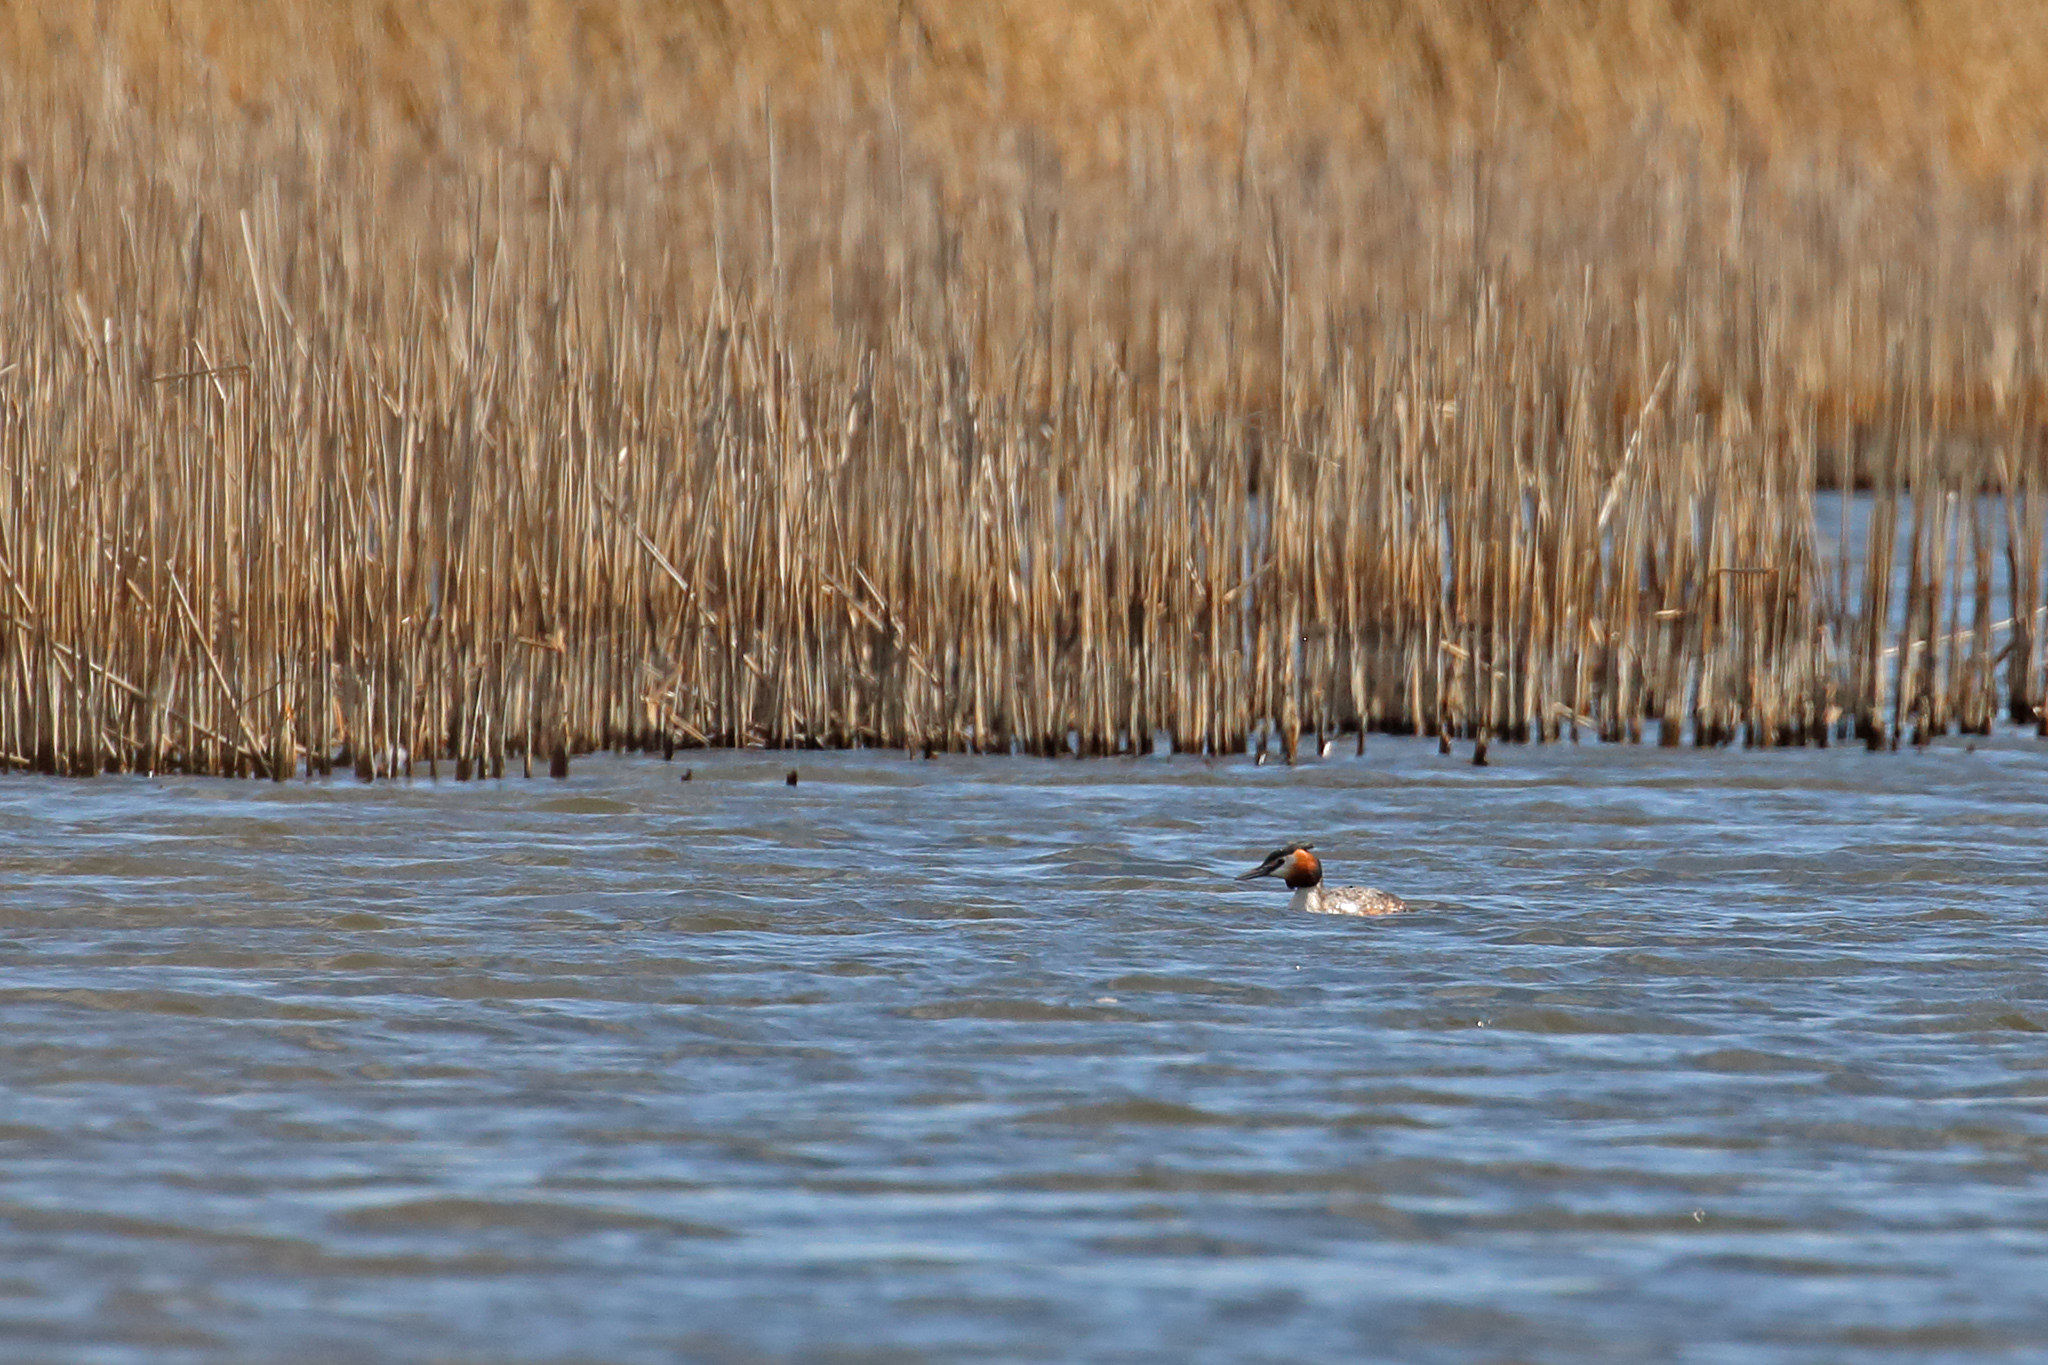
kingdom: Animalia
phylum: Chordata
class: Aves
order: Podicipediformes
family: Podicipedidae
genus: Podiceps
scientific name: Podiceps cristatus
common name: Great crested grebe
